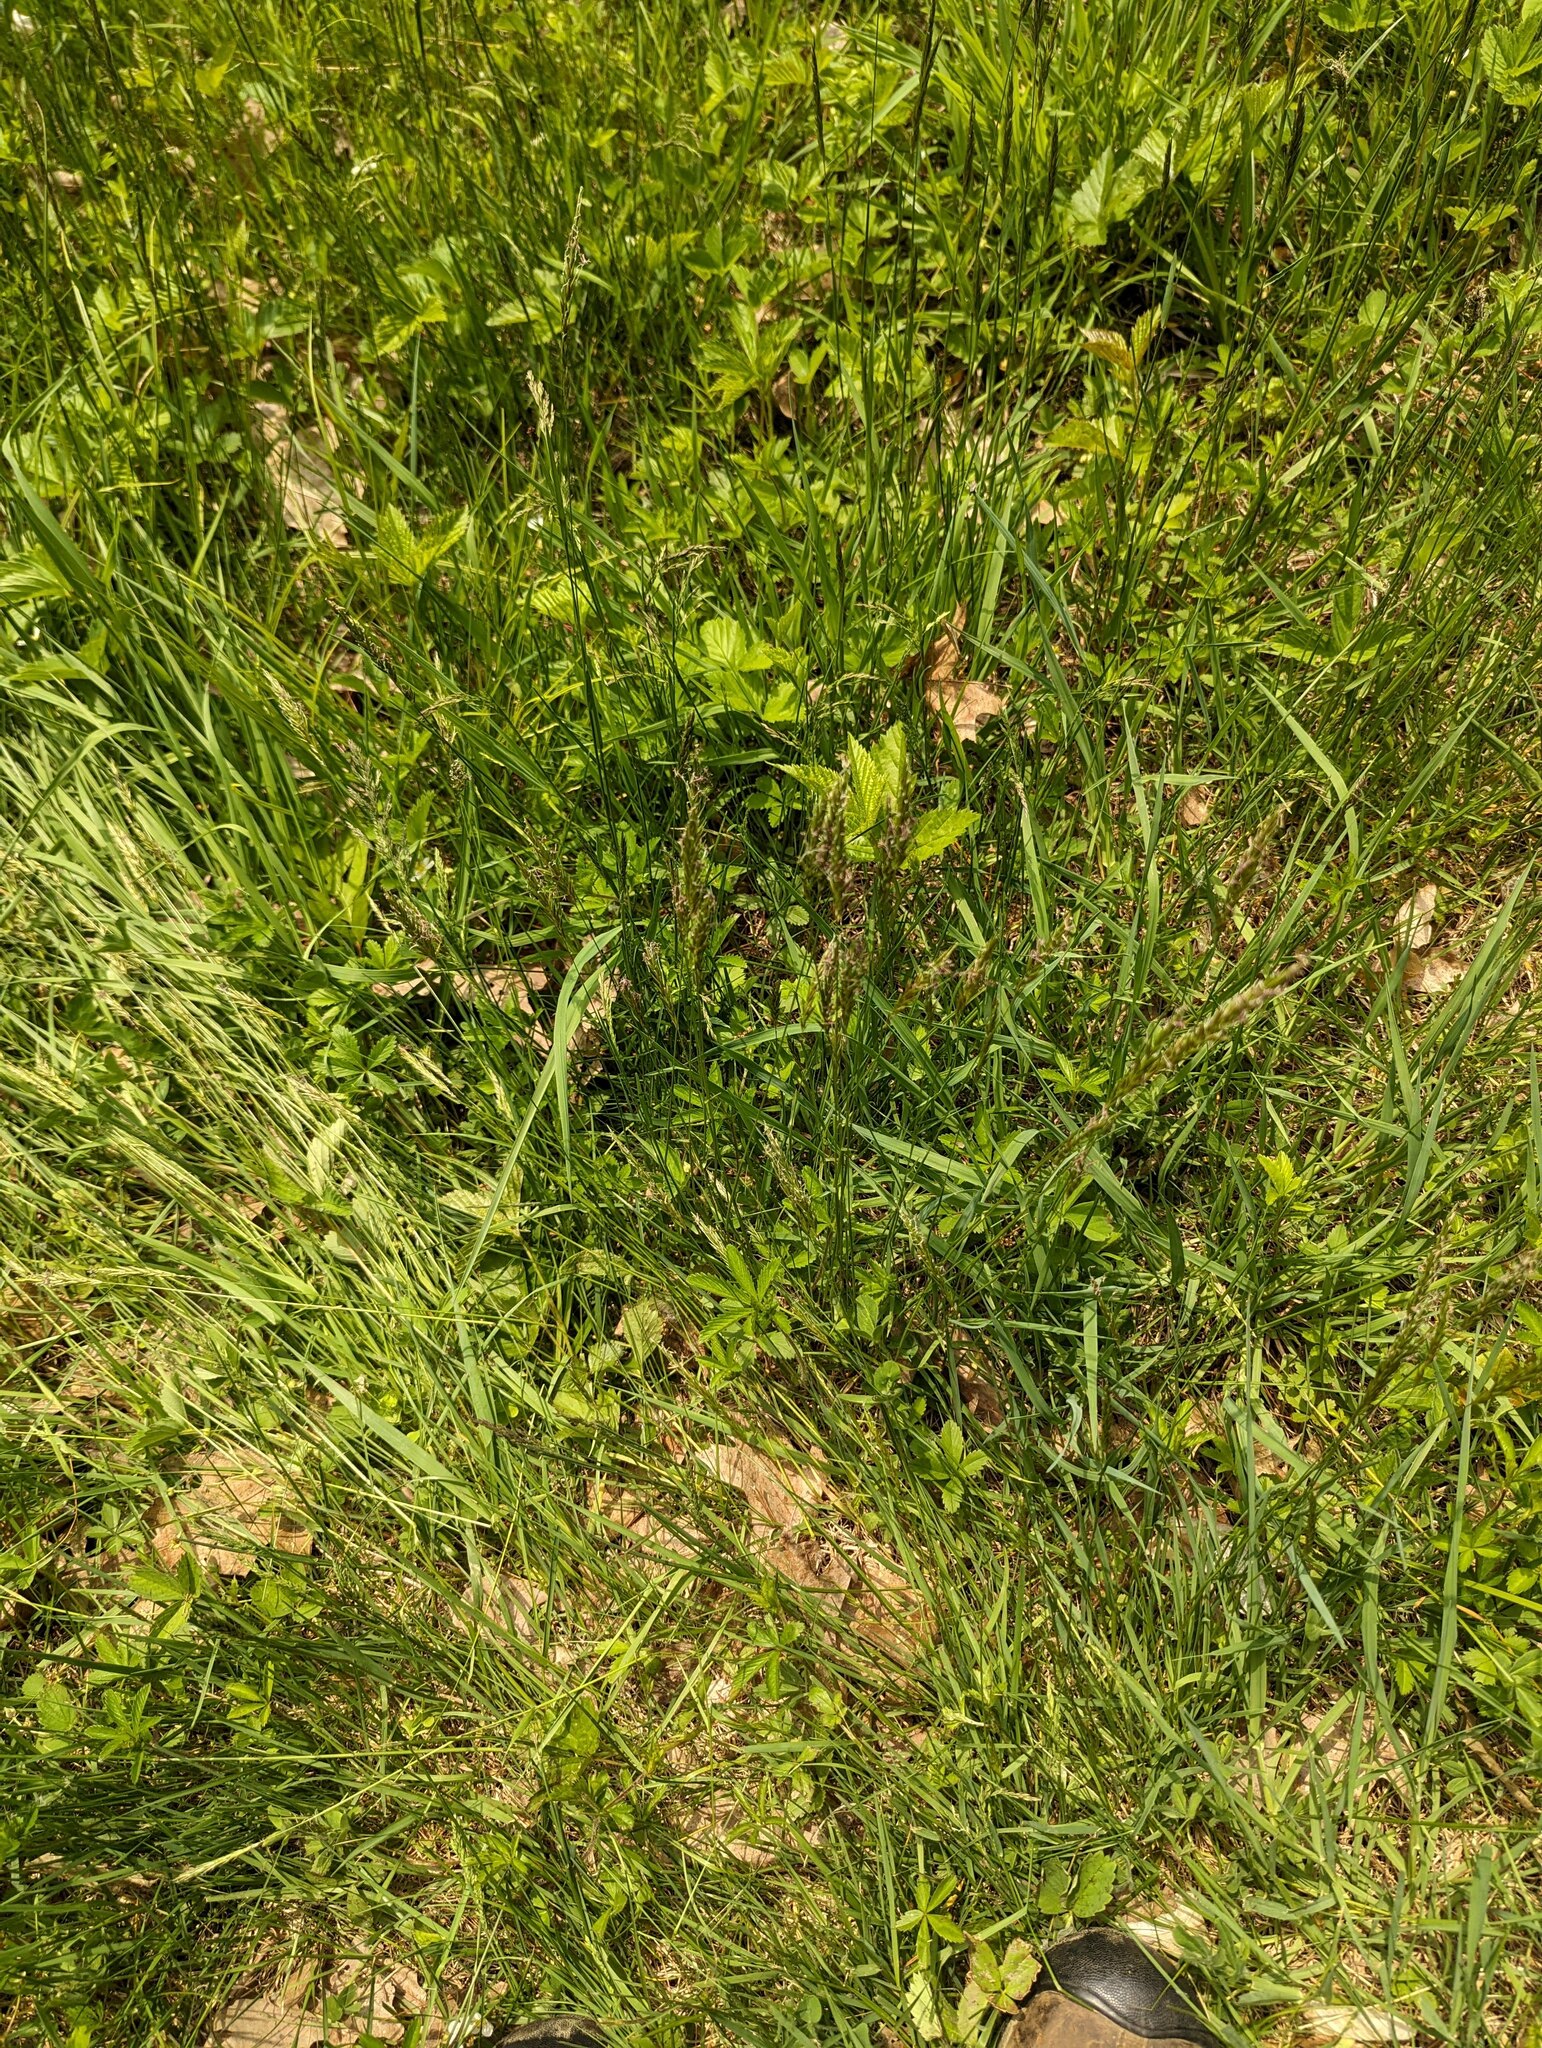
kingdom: Plantae
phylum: Tracheophyta
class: Liliopsida
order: Poales
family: Poaceae
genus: Anthoxanthum
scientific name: Anthoxanthum odoratum
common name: Sweet vernalgrass
